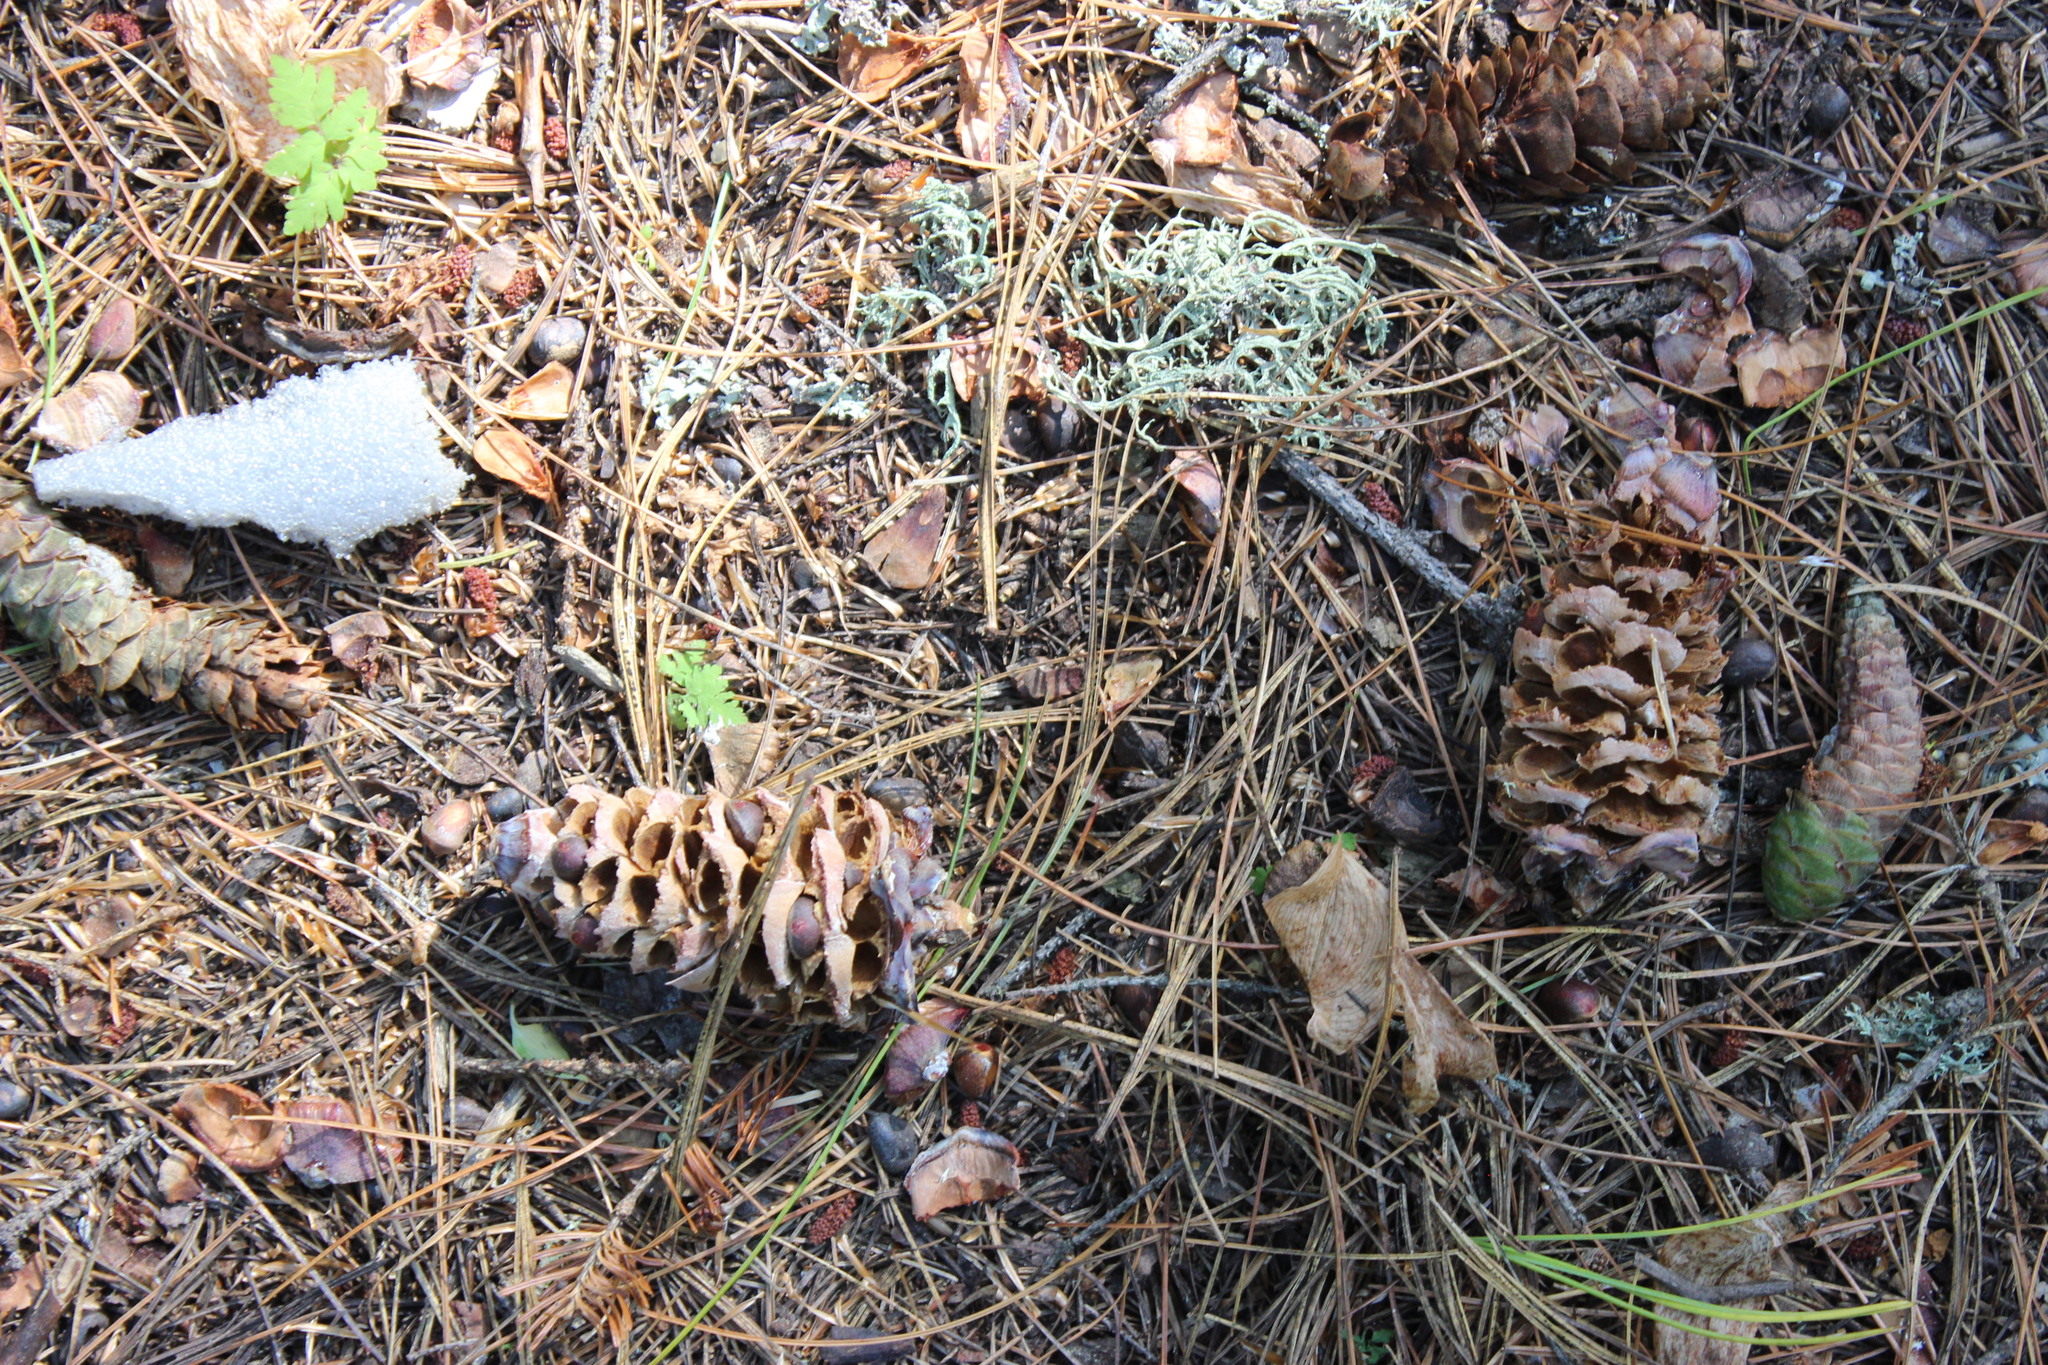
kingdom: Plantae
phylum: Tracheophyta
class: Pinopsida
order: Pinales
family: Pinaceae
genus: Pinus
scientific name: Pinus sibirica
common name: Siberian pine
